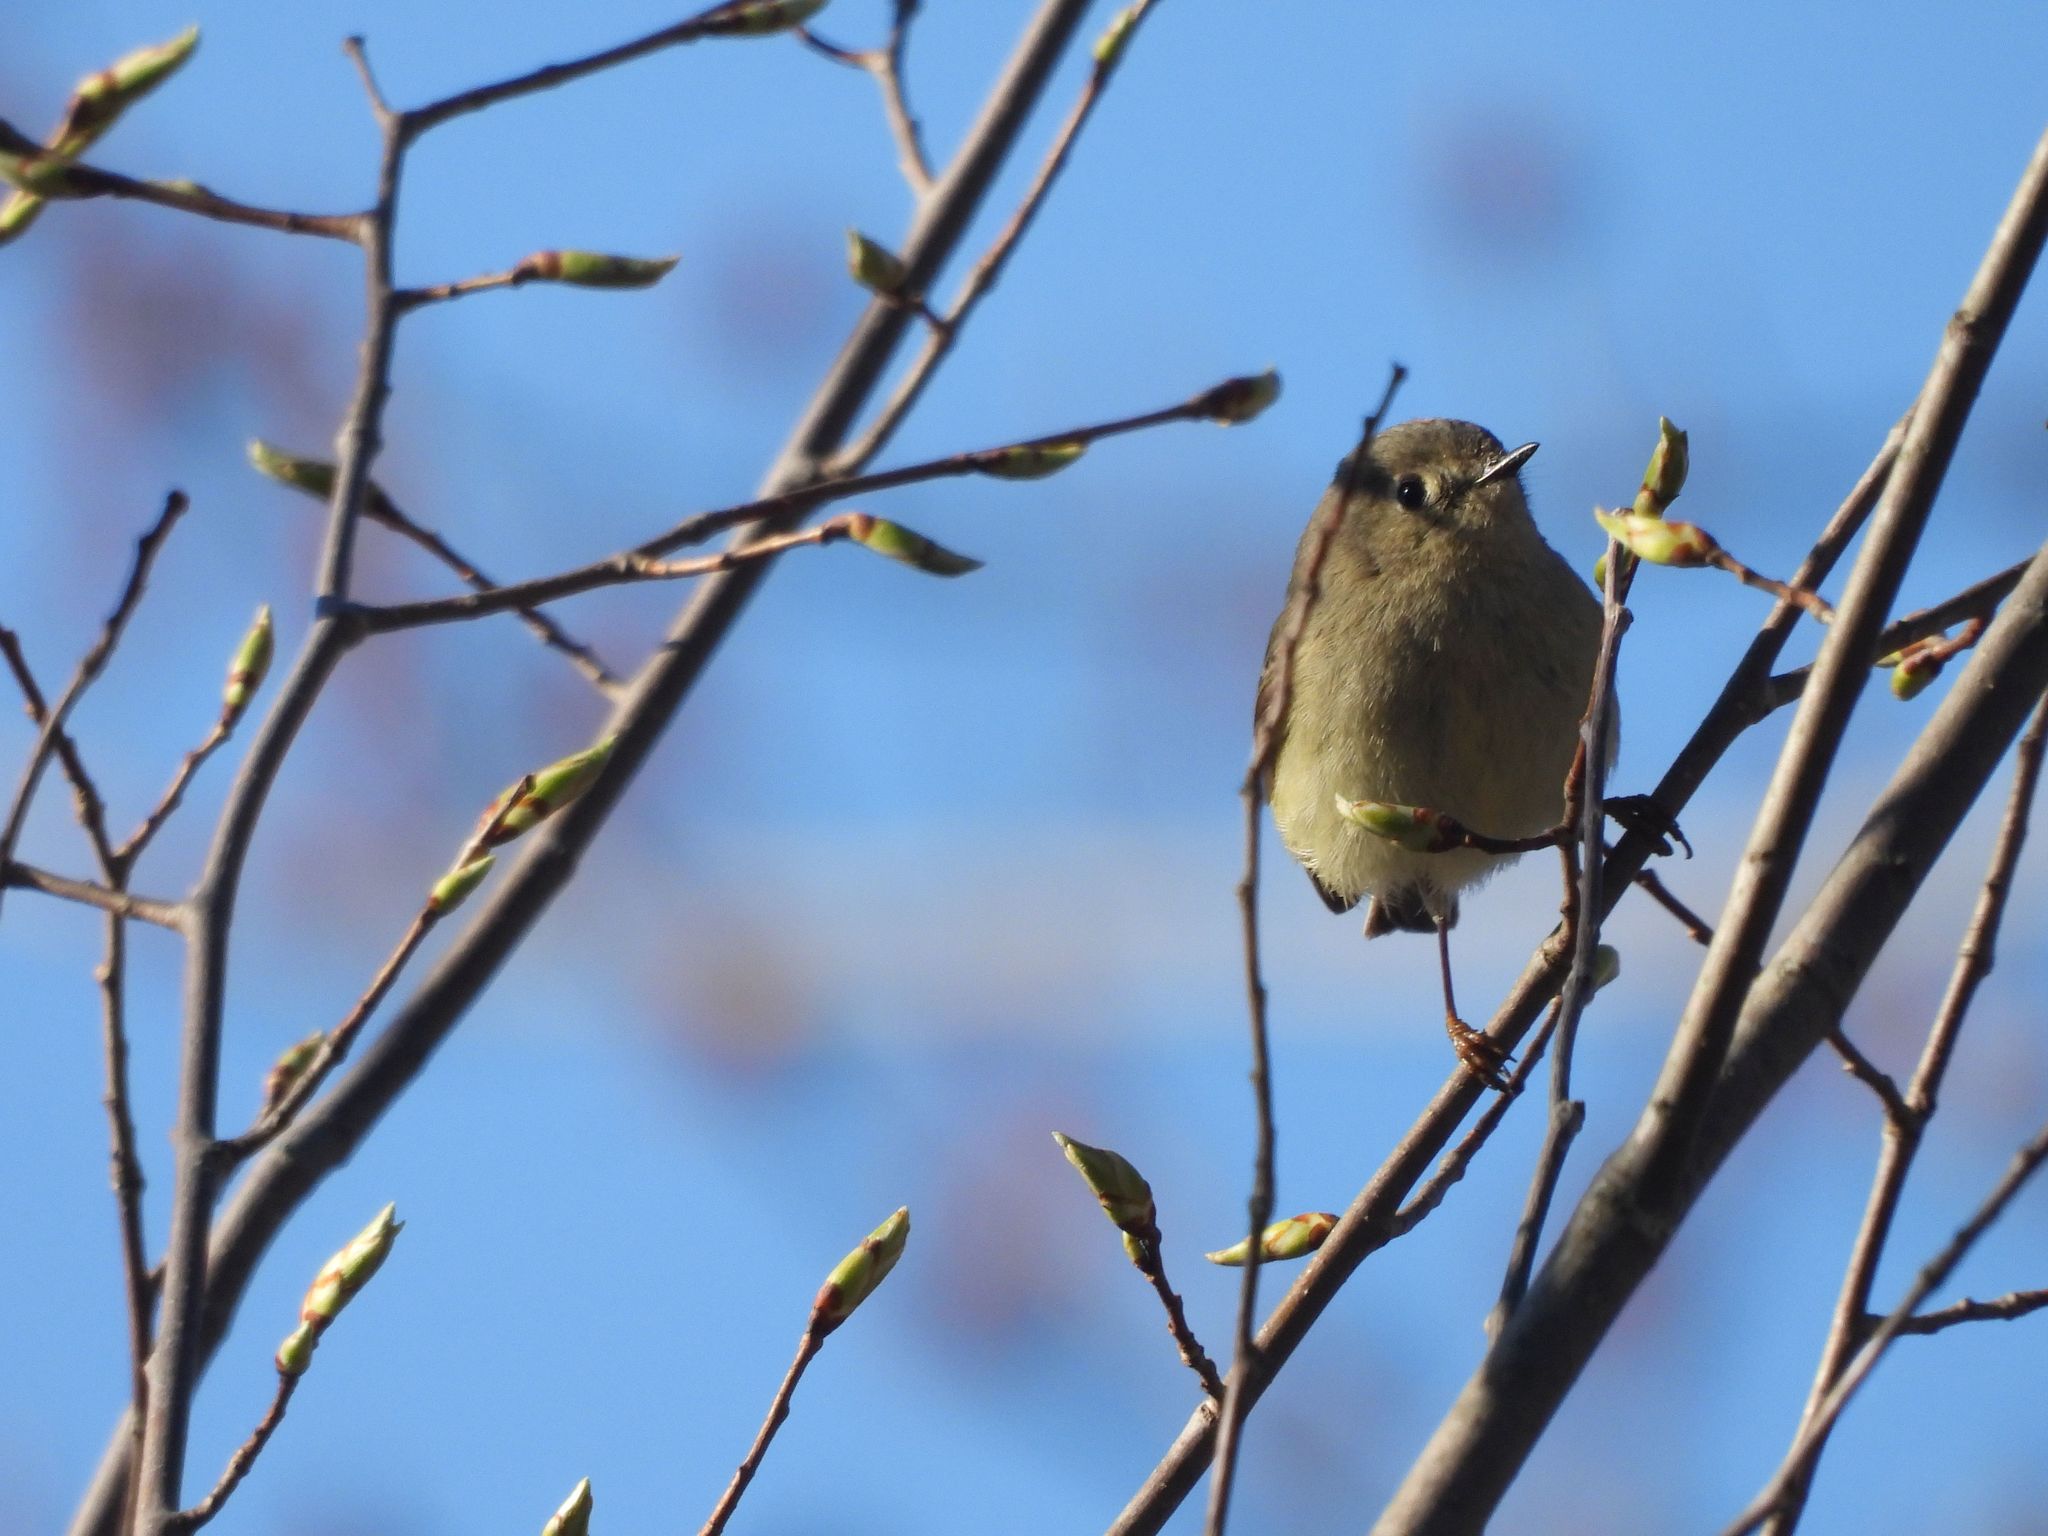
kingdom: Animalia
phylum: Chordata
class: Aves
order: Passeriformes
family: Regulidae
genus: Regulus
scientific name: Regulus calendula
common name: Ruby-crowned kinglet
